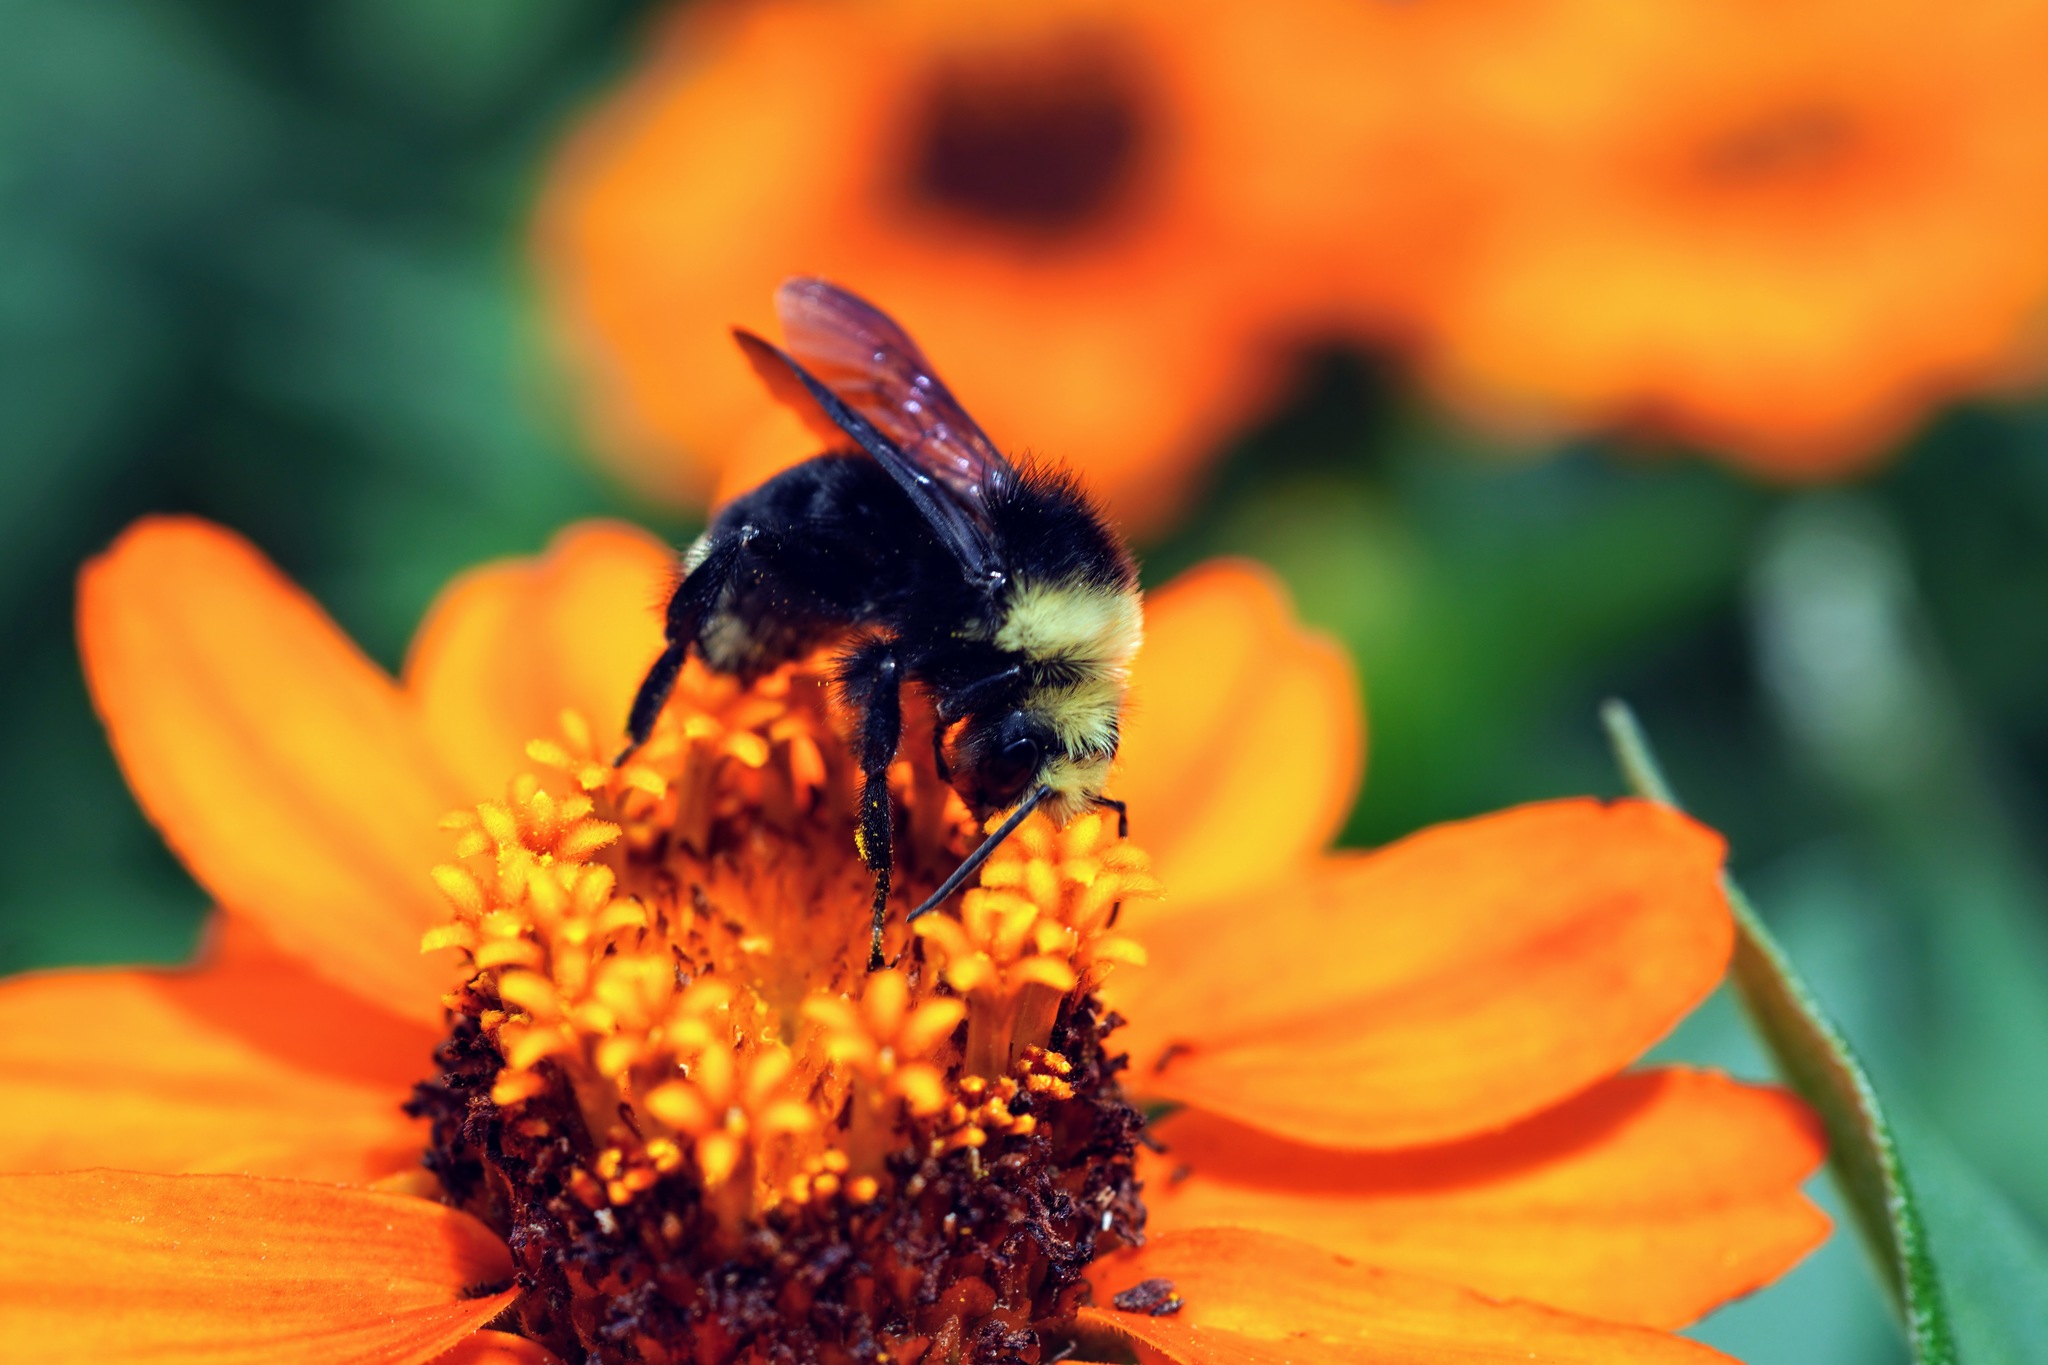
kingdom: Animalia
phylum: Arthropoda
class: Insecta
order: Hymenoptera
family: Apidae
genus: Bombus
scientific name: Bombus vosnesenskii
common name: Vosnesensky bumble bee
